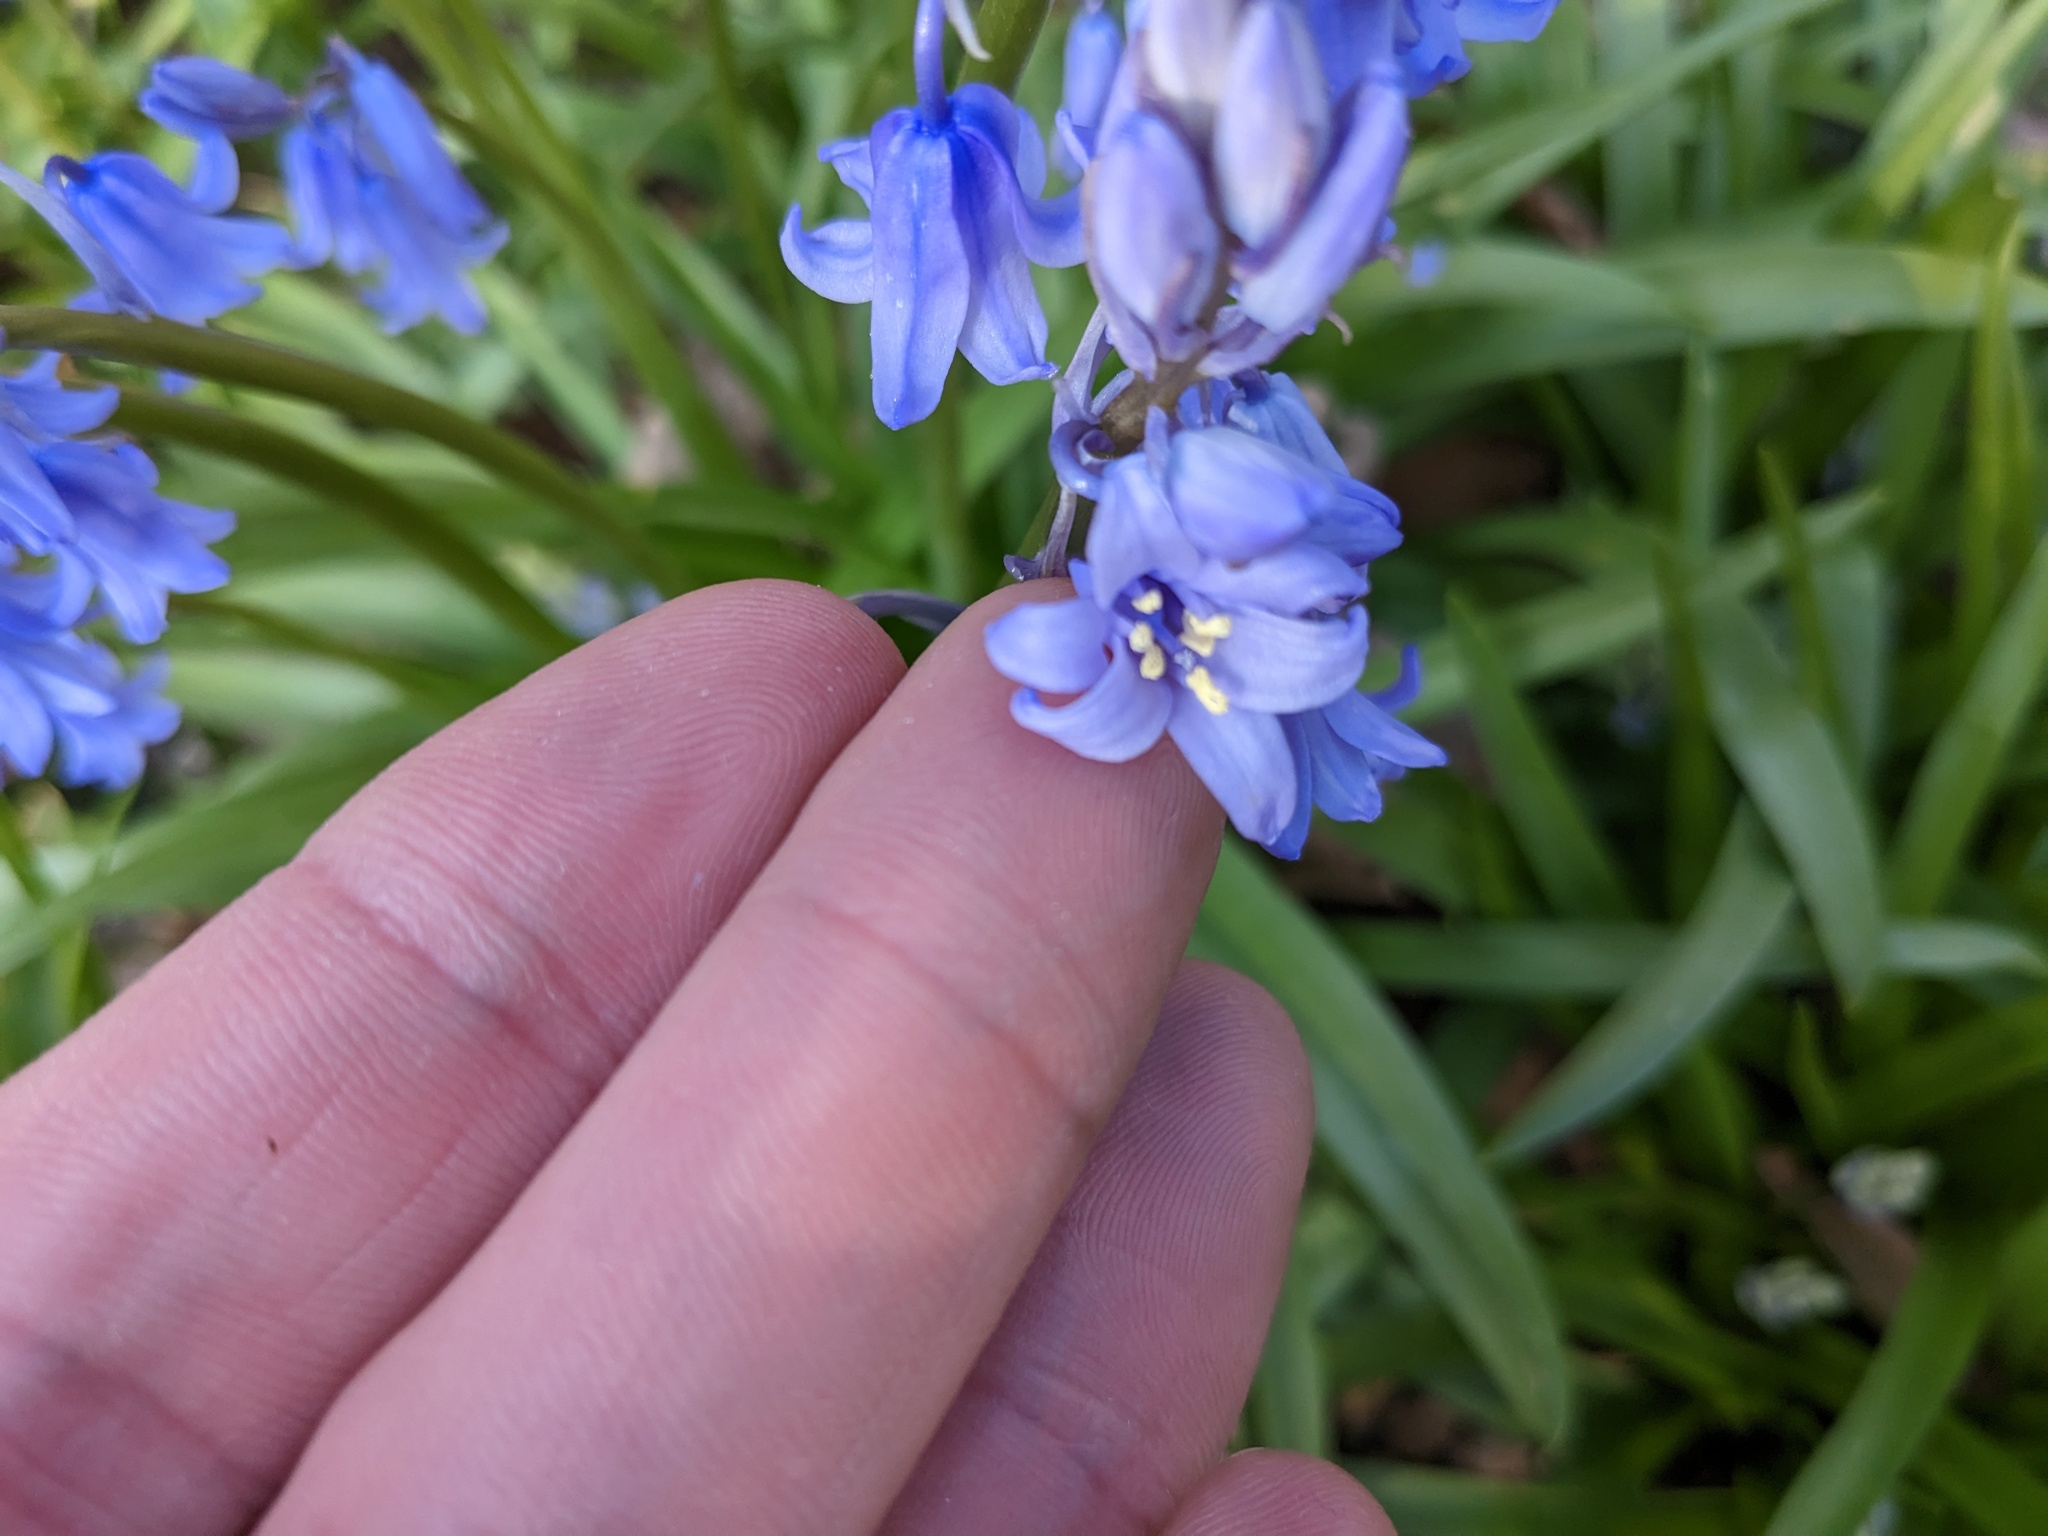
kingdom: Plantae
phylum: Tracheophyta
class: Liliopsida
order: Asparagales
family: Asparagaceae
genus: Hyacinthoides
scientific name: Hyacinthoides non-scripta
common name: Bluebell
